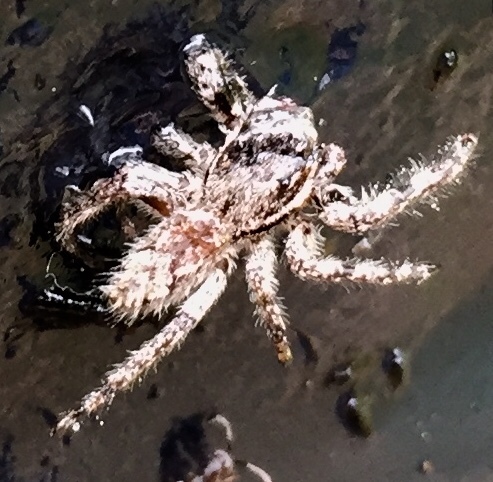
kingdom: Animalia
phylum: Arthropoda
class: Arachnida
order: Araneae
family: Salticidae
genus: Platycryptus
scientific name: Platycryptus undatus
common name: Tan jumping spider
